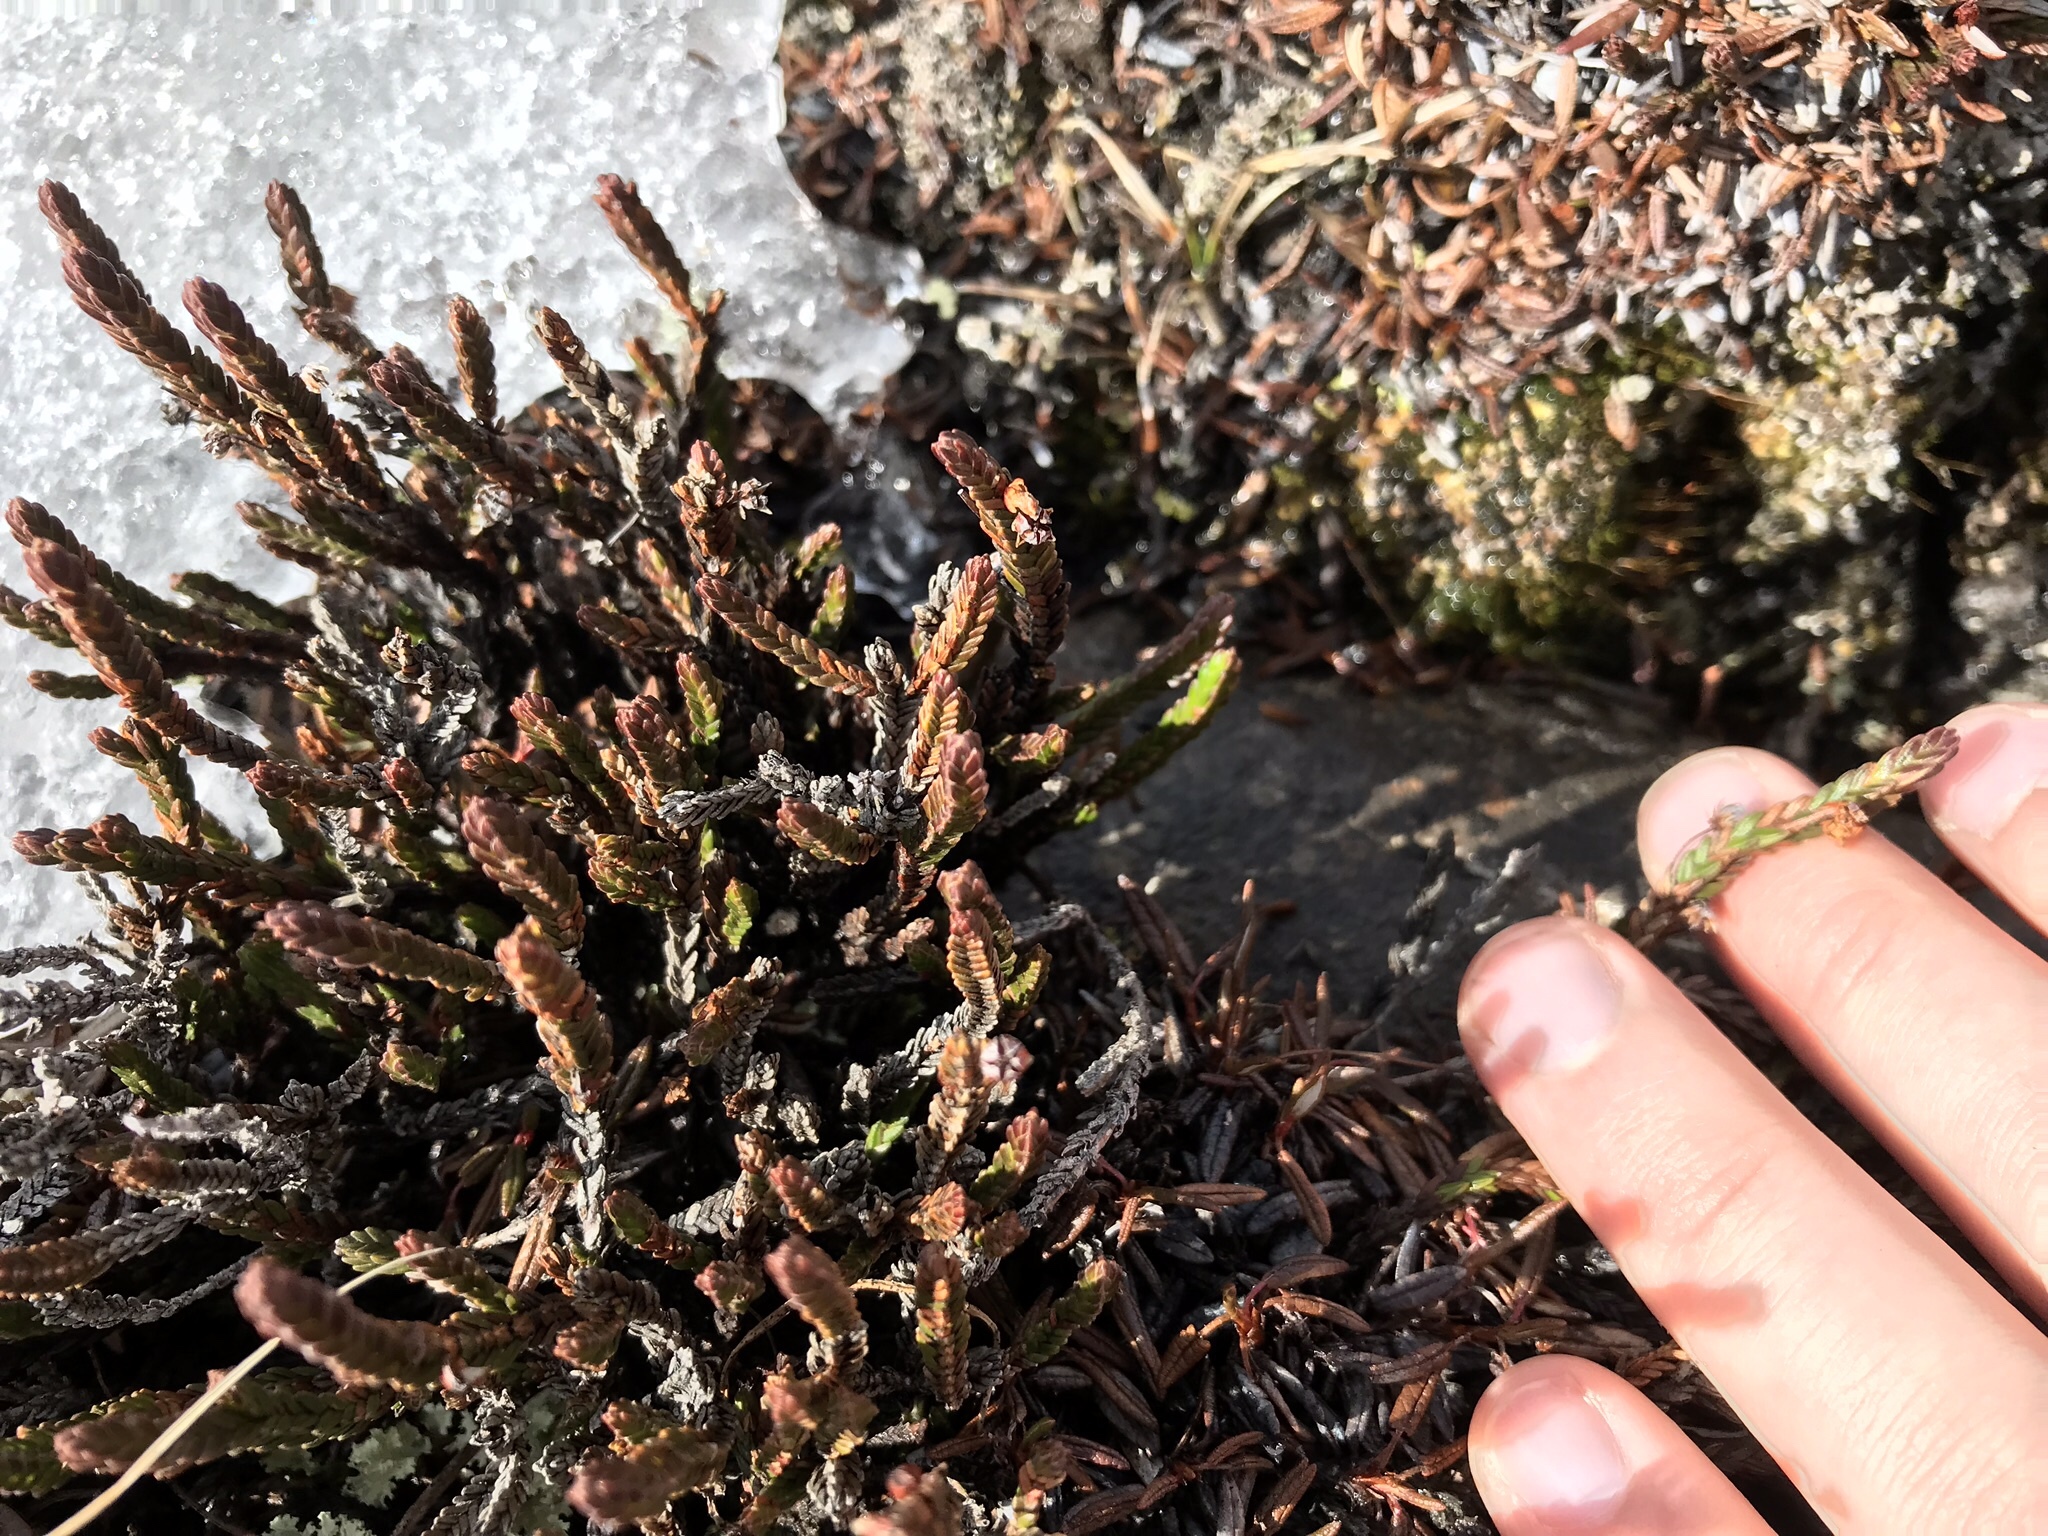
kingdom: Plantae
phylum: Tracheophyta
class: Magnoliopsida
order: Ericales
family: Ericaceae
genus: Cassiope
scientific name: Cassiope tetragona
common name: Arctic bell heather
